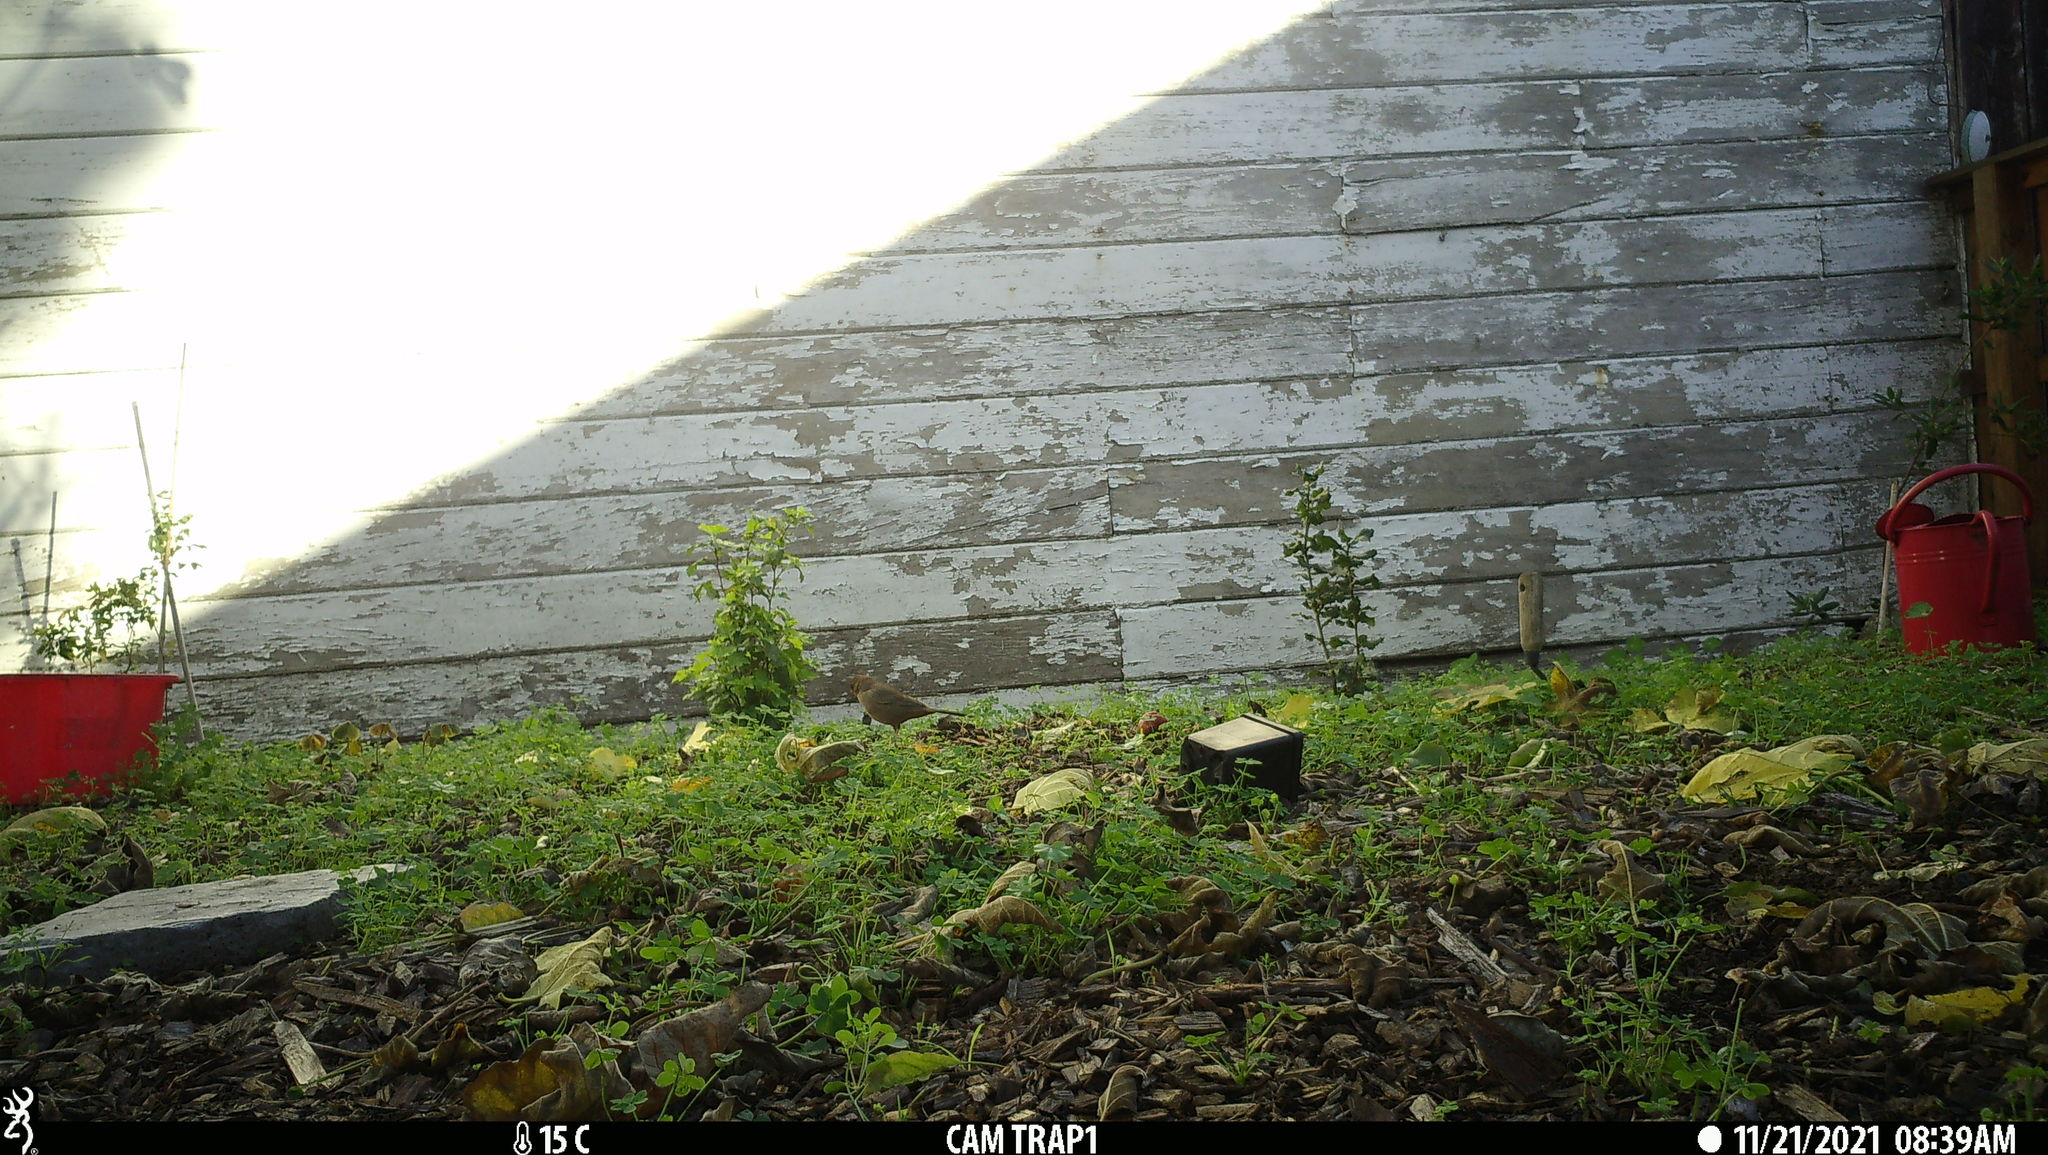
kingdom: Animalia
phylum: Chordata
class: Aves
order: Passeriformes
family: Passerellidae
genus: Melozone
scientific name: Melozone crissalis
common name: California towhee
